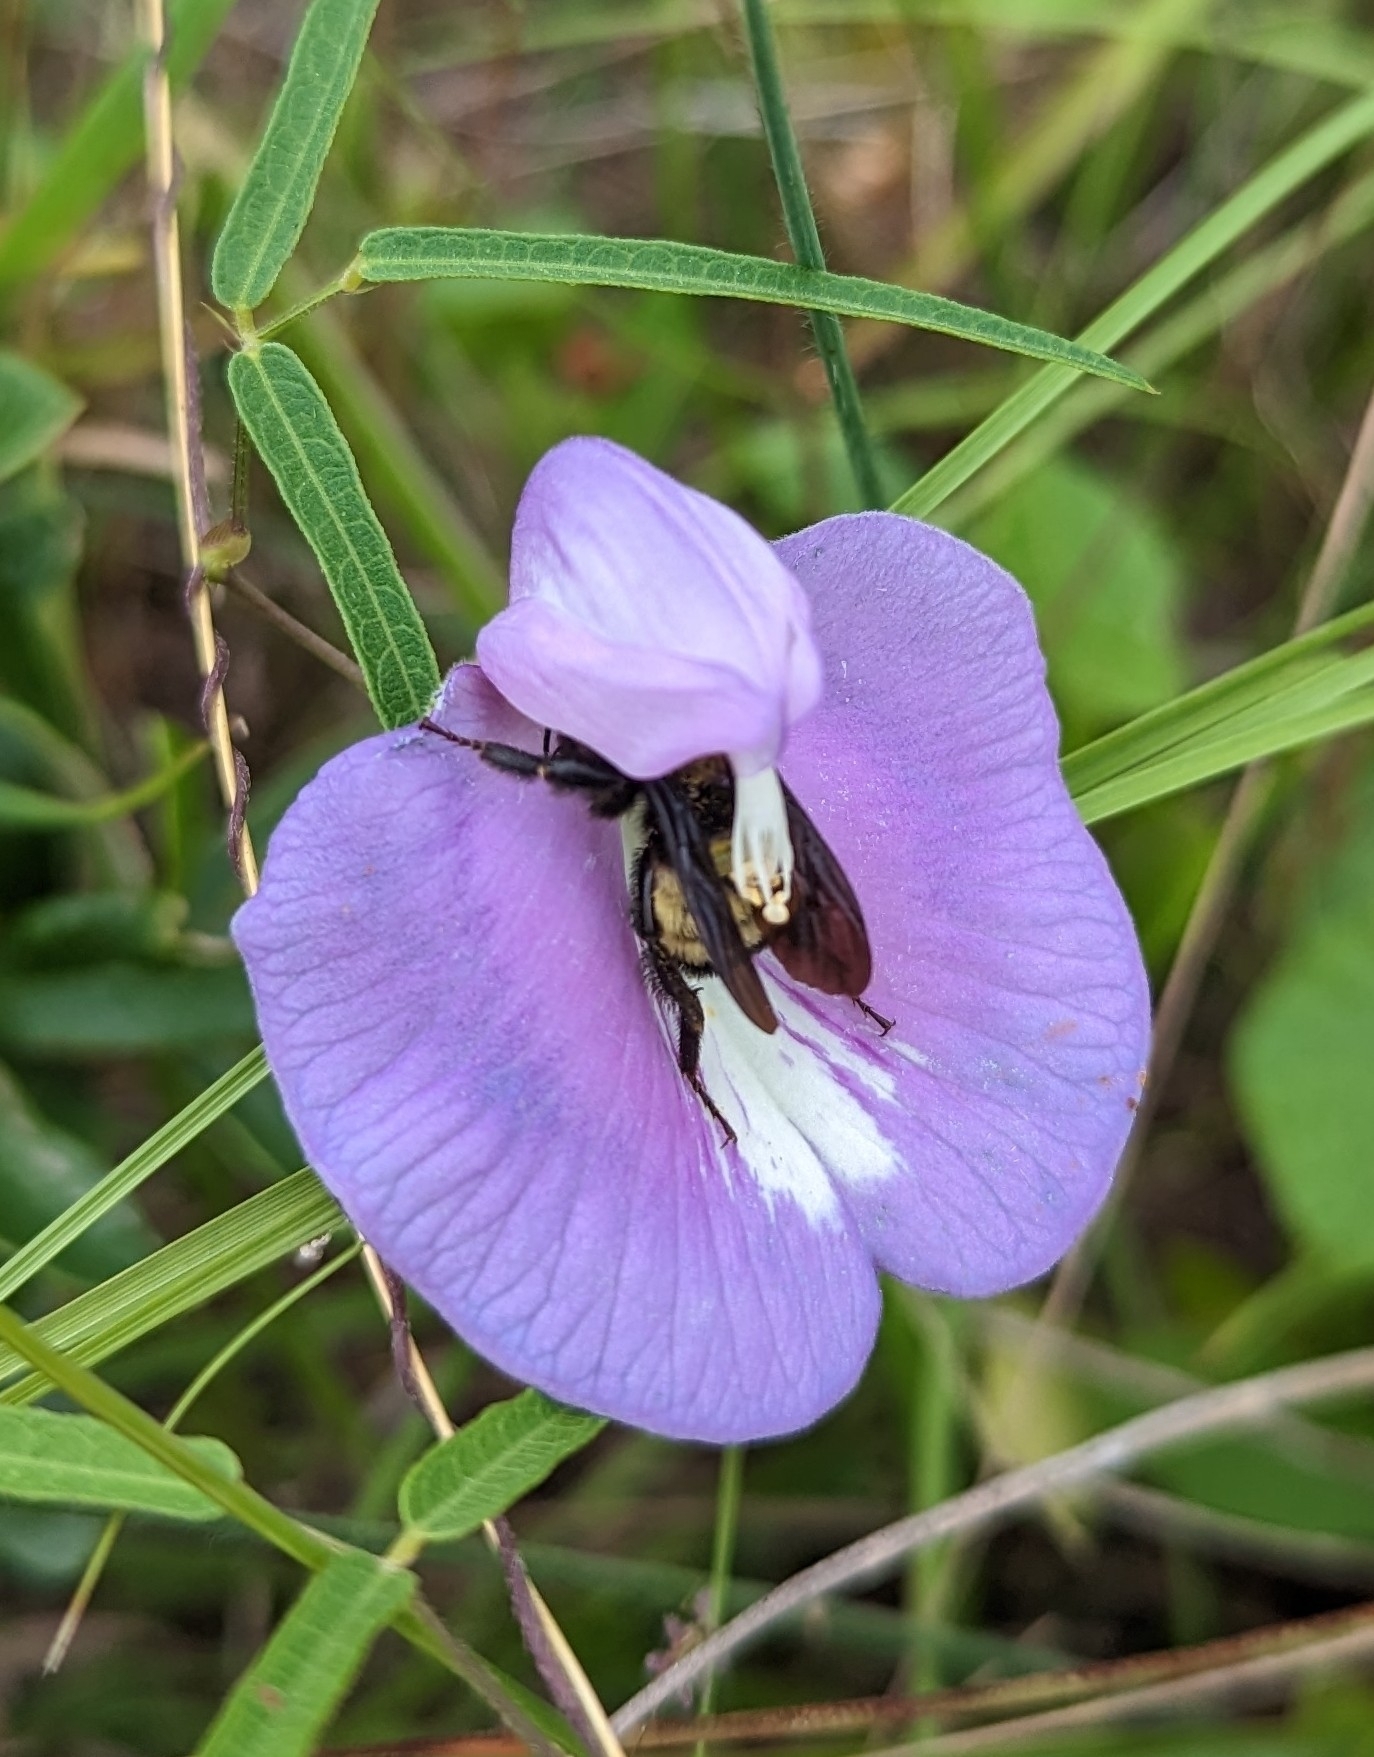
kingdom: Animalia
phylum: Arthropoda
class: Insecta
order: Hymenoptera
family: Apidae
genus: Bombus
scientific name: Bombus pensylvanicus
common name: Bumble bee
